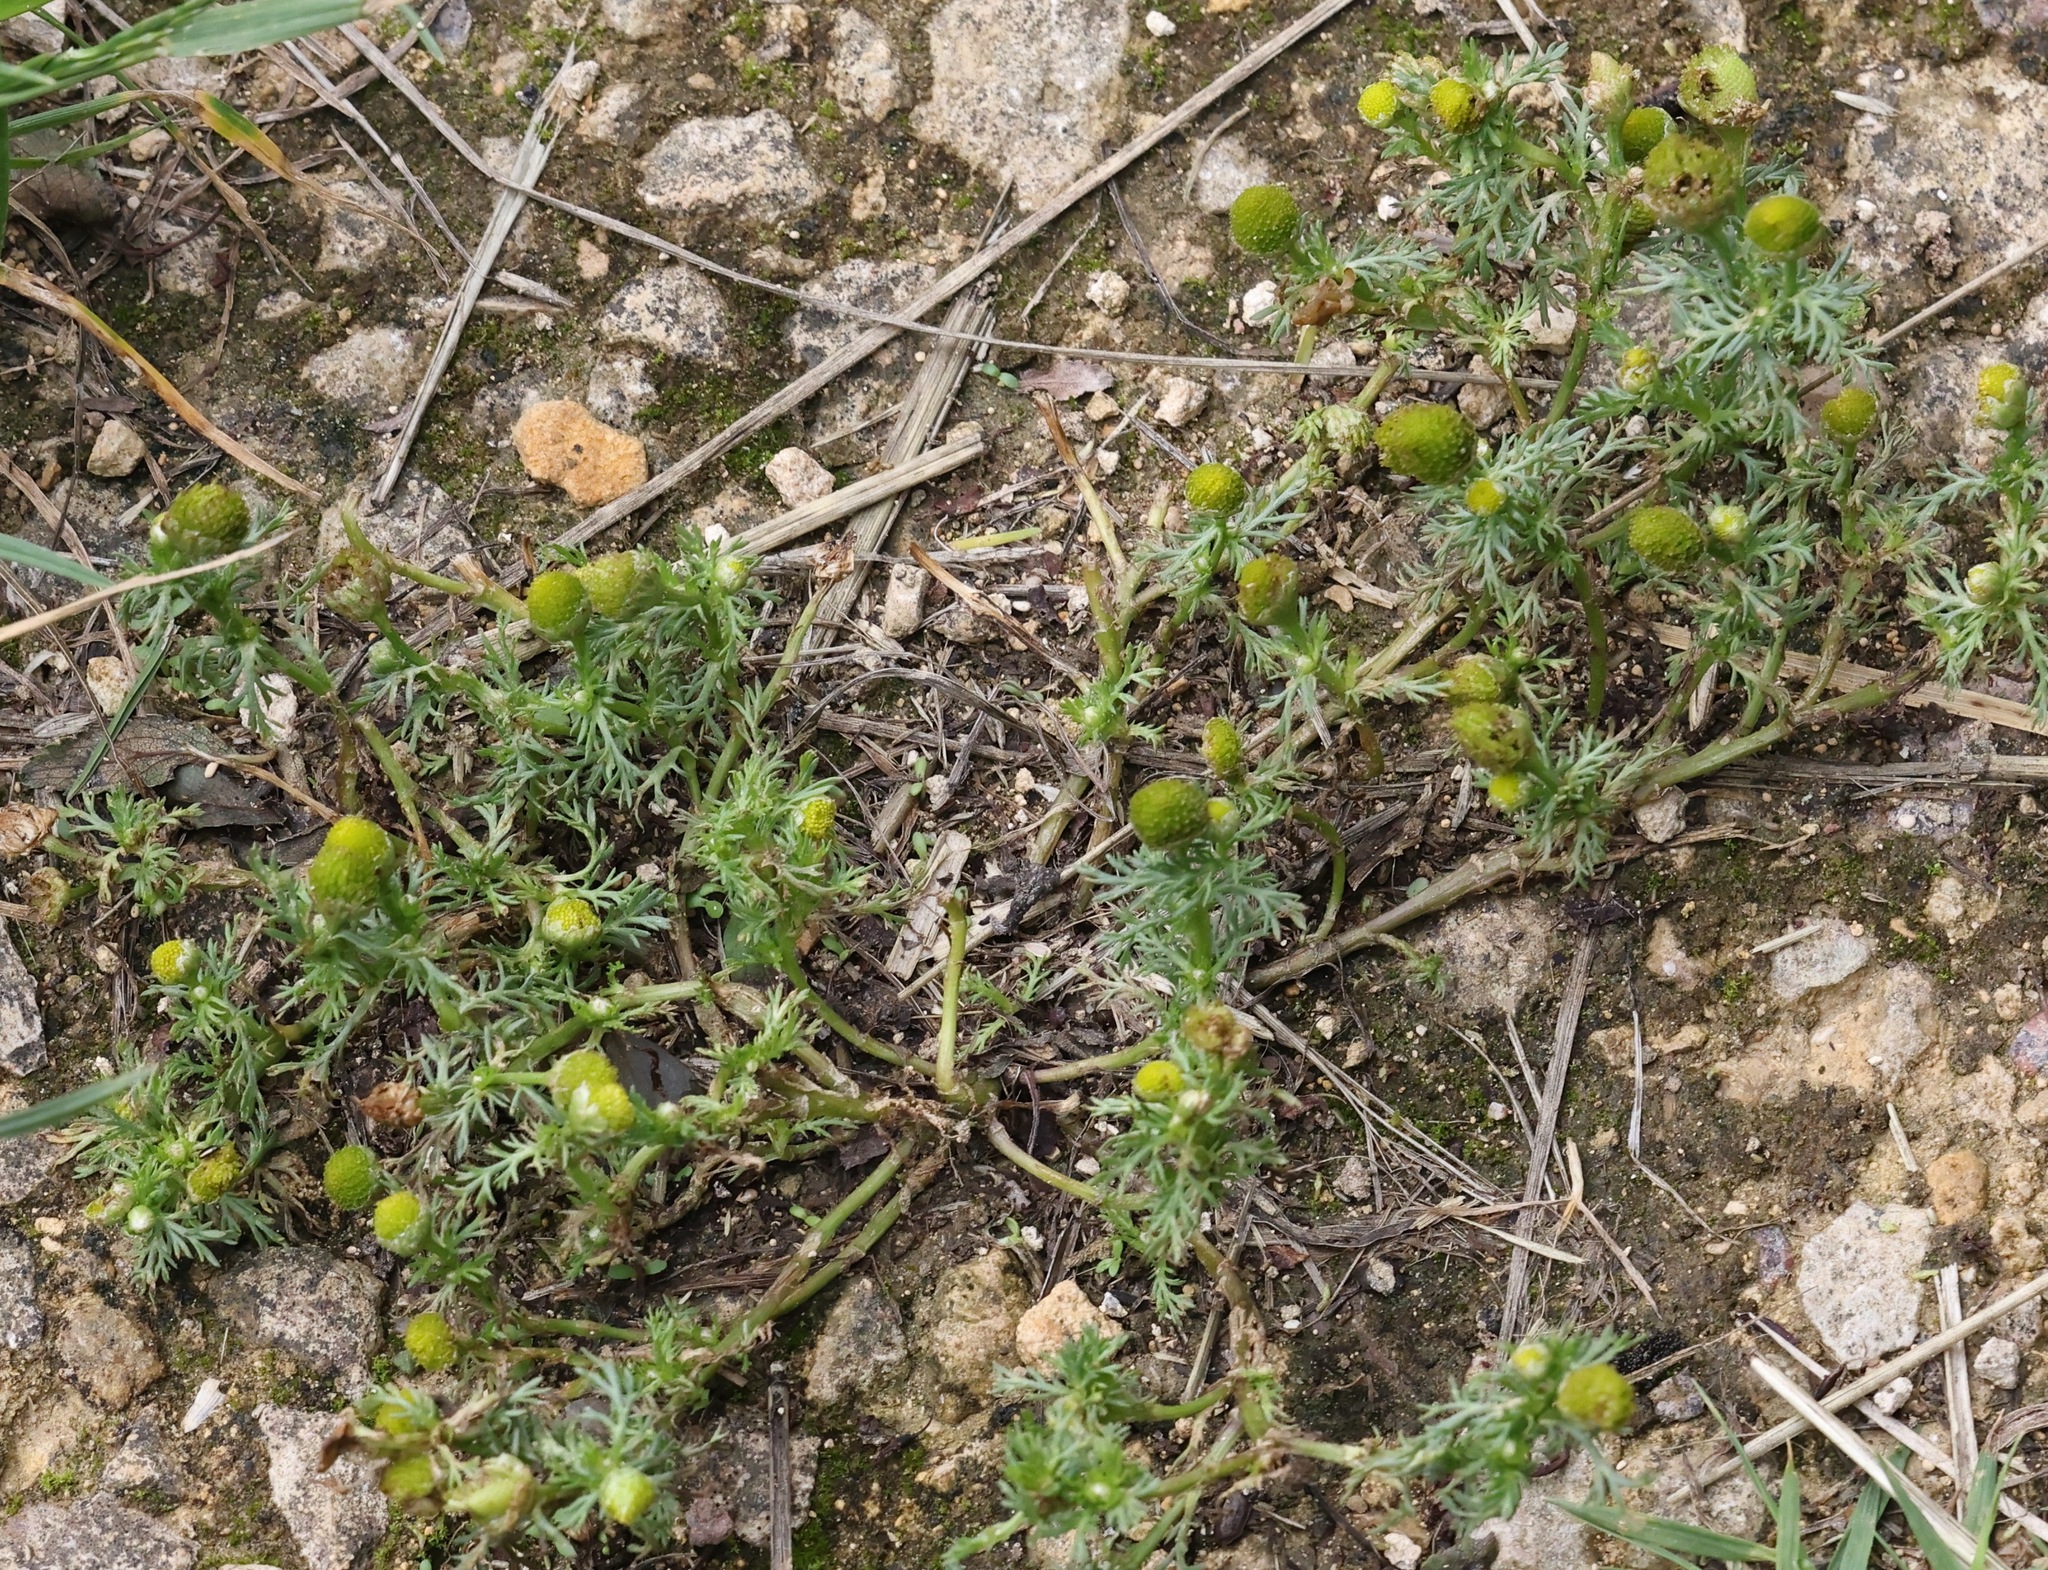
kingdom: Plantae
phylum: Tracheophyta
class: Magnoliopsida
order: Asterales
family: Asteraceae
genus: Matricaria
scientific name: Matricaria discoidea
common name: Disc mayweed
